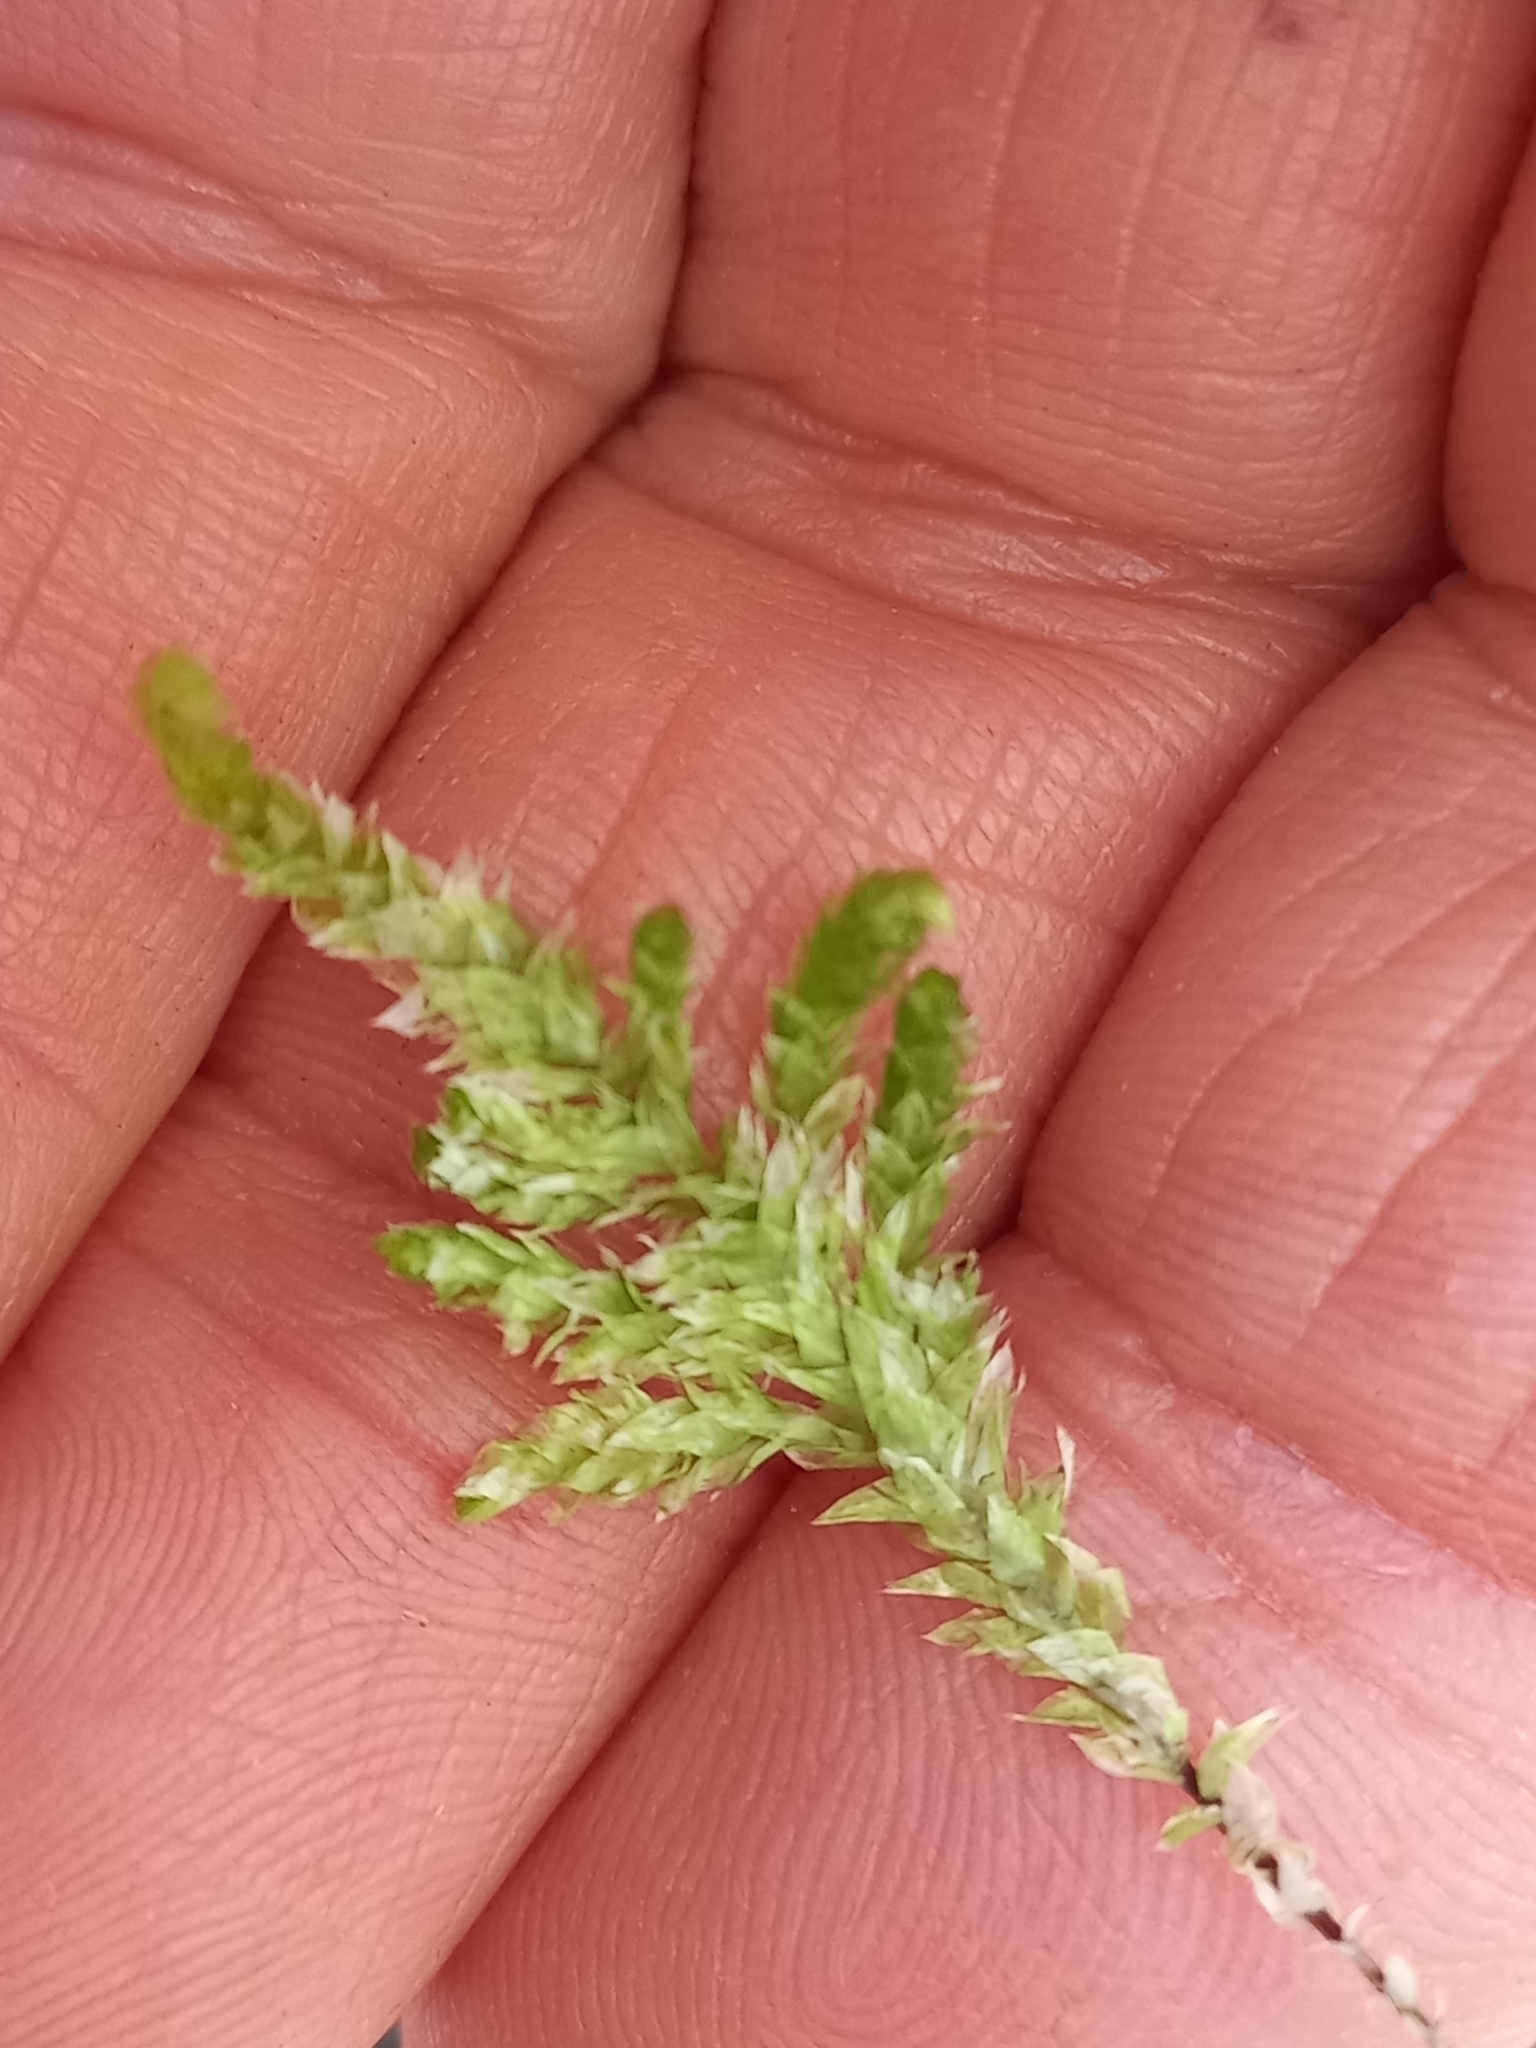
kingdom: Plantae
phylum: Bryophyta
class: Bryopsida
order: Hypnales
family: Trachylomataceae
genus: Trachyloma
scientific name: Trachyloma planifolium
